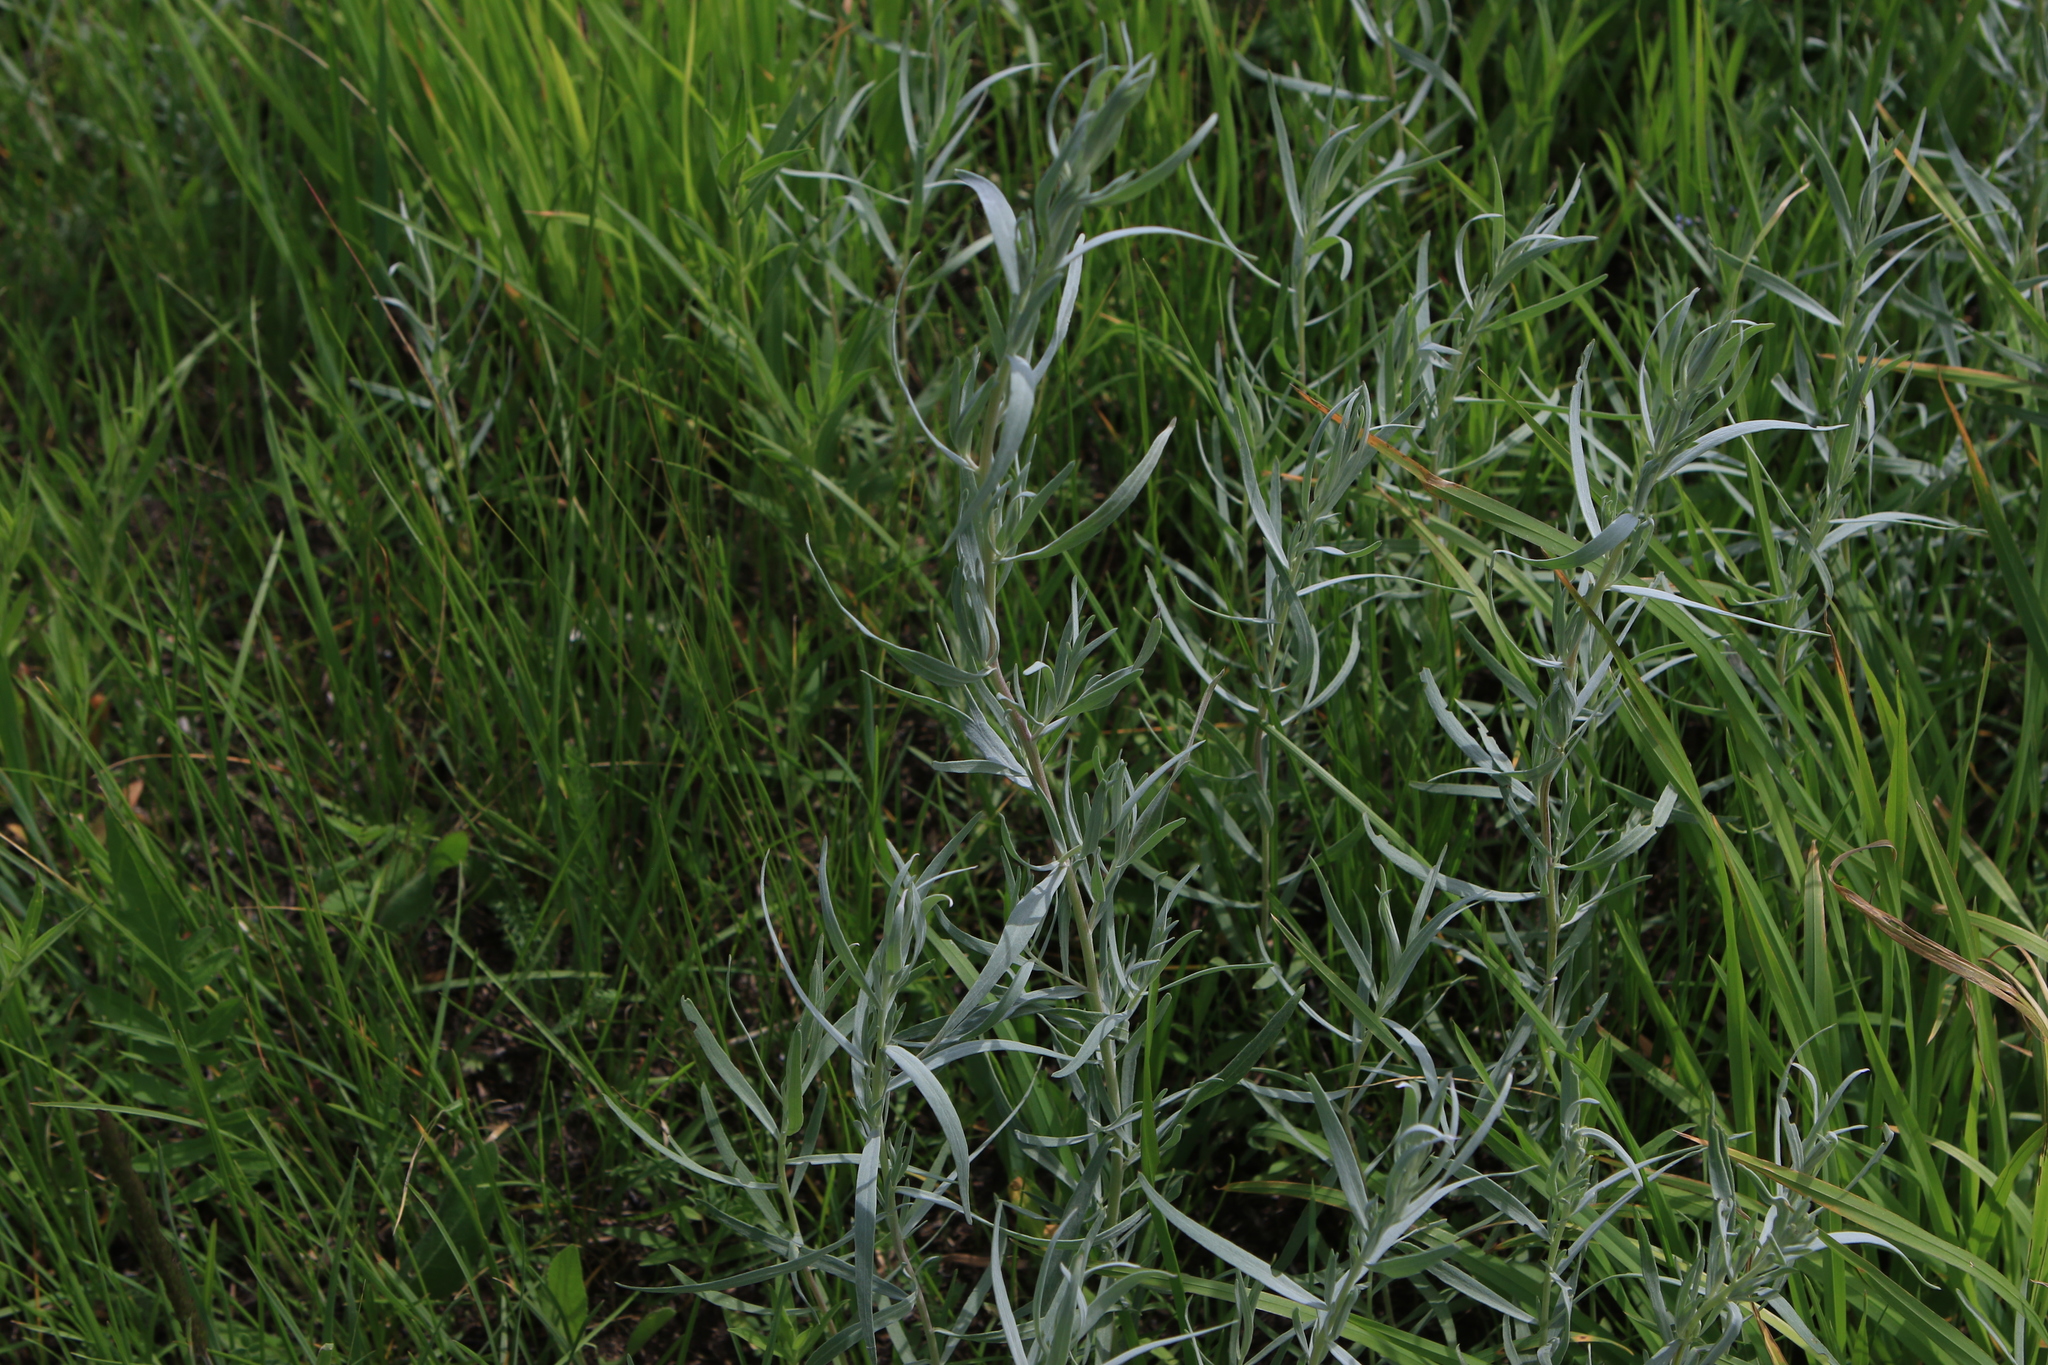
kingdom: Plantae
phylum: Tracheophyta
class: Magnoliopsida
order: Asterales
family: Asteraceae
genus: Artemisia
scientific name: Artemisia glauca
